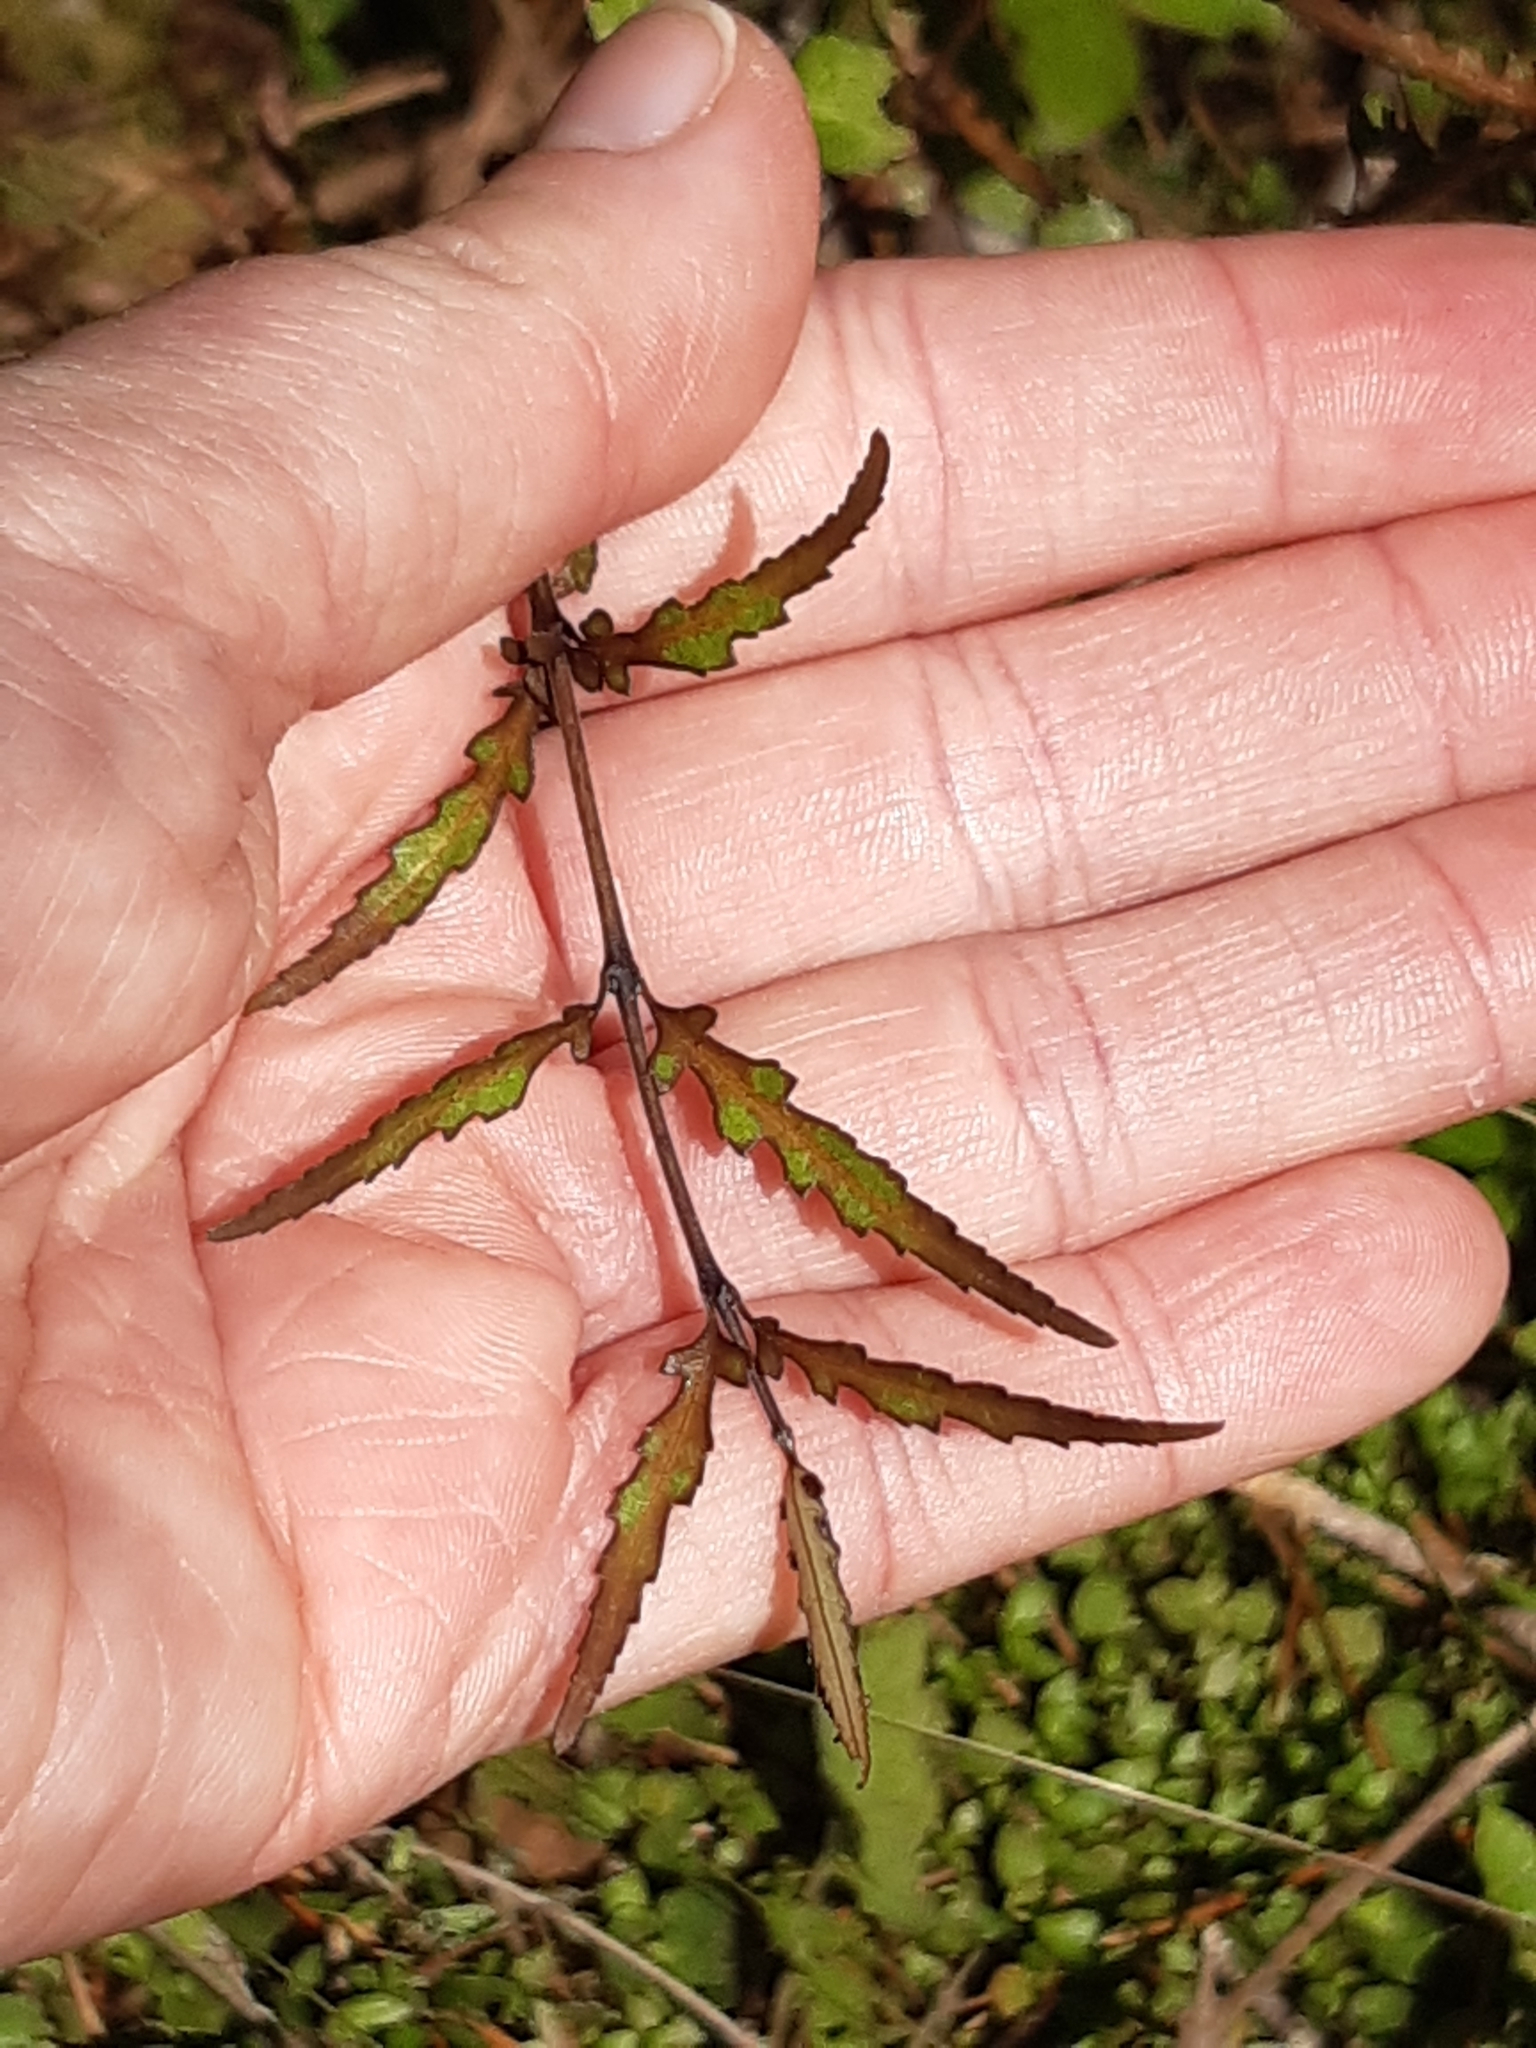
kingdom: Plantae
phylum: Tracheophyta
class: Magnoliopsida
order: Oxalidales
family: Elaeocarpaceae
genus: Elaeocarpus
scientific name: Elaeocarpus hookerianus
